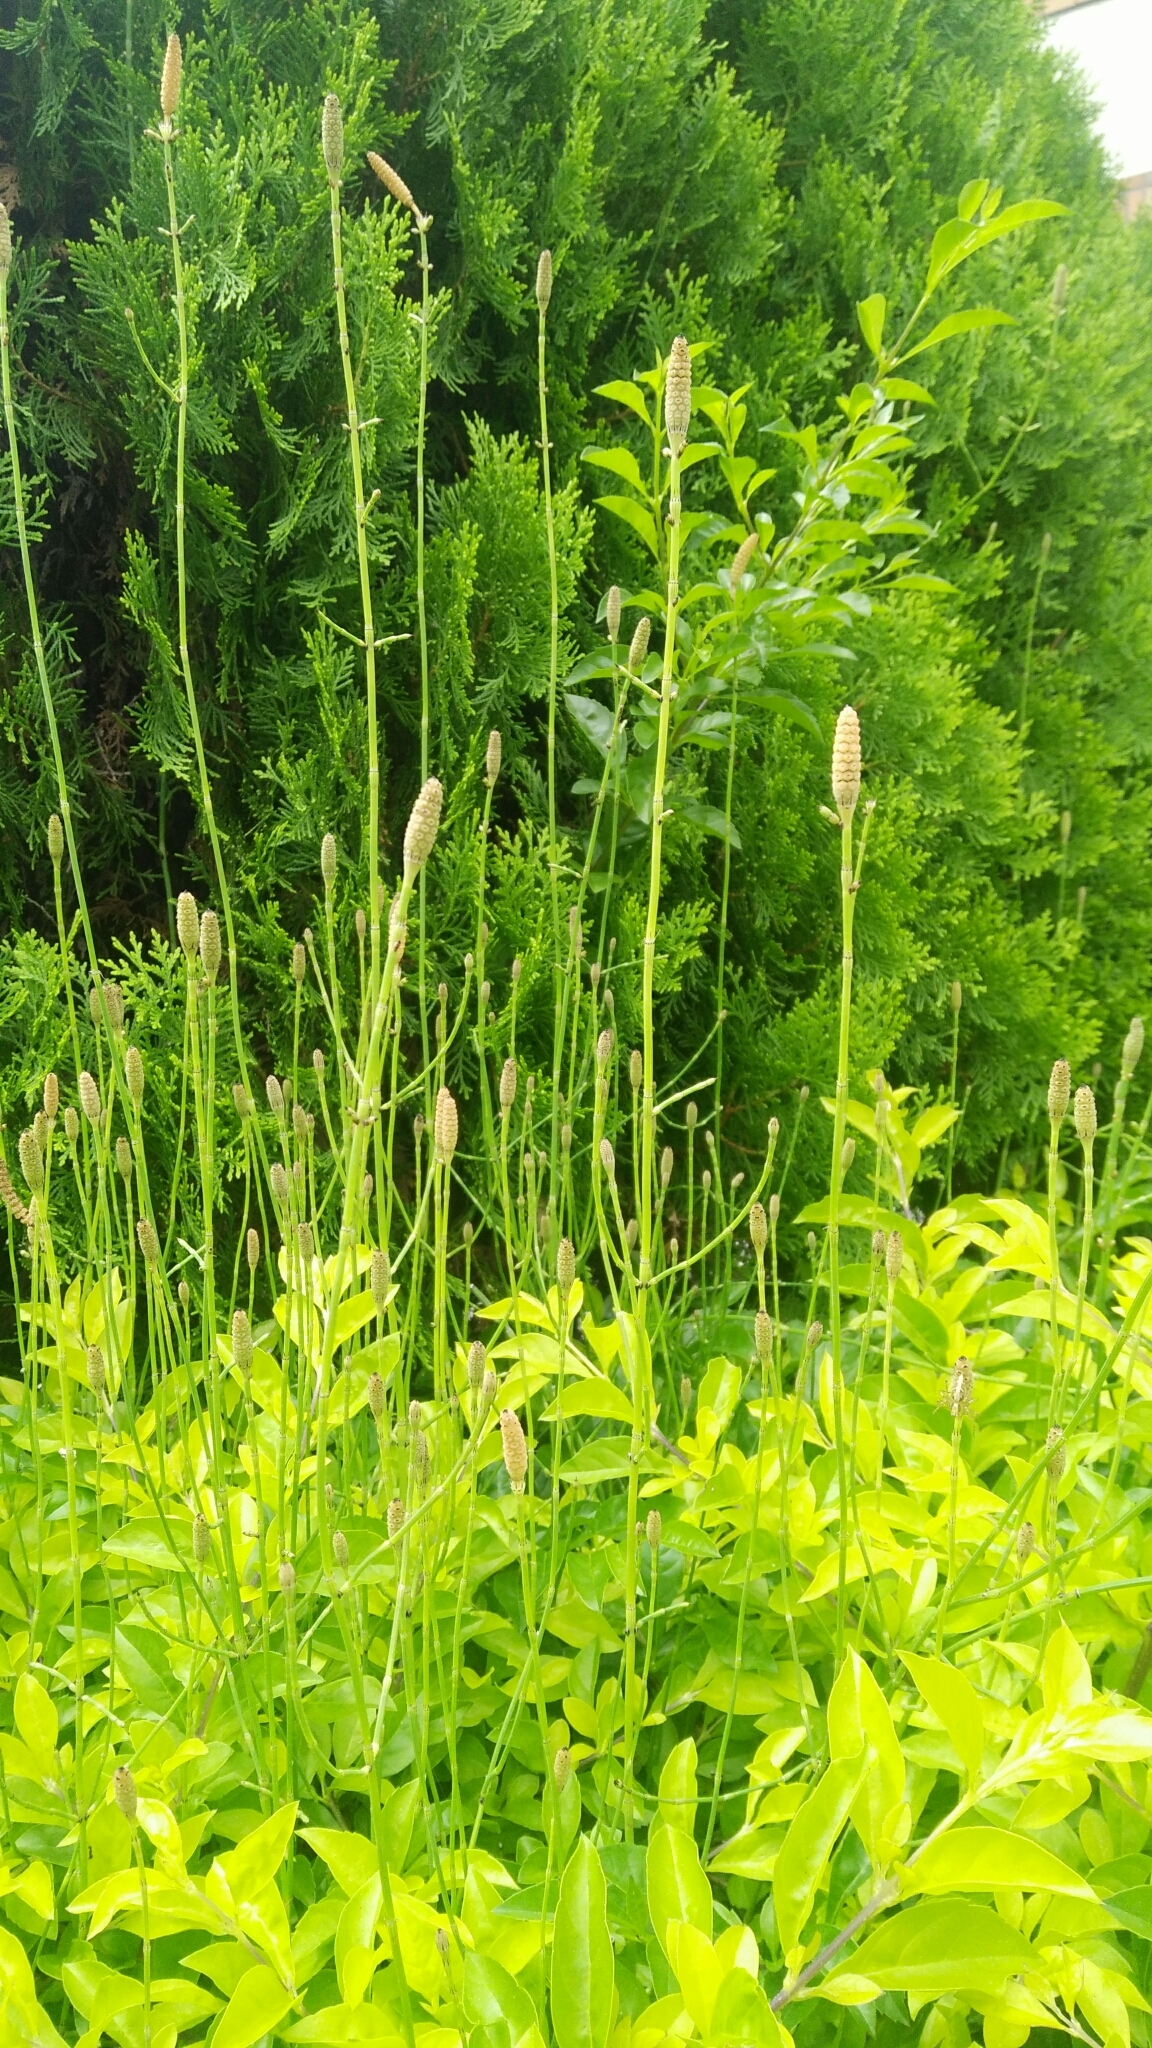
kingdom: Plantae
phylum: Tracheophyta
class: Polypodiopsida
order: Equisetales
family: Equisetaceae
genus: Equisetum
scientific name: Equisetum ramosissimum
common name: Branched horsetail
